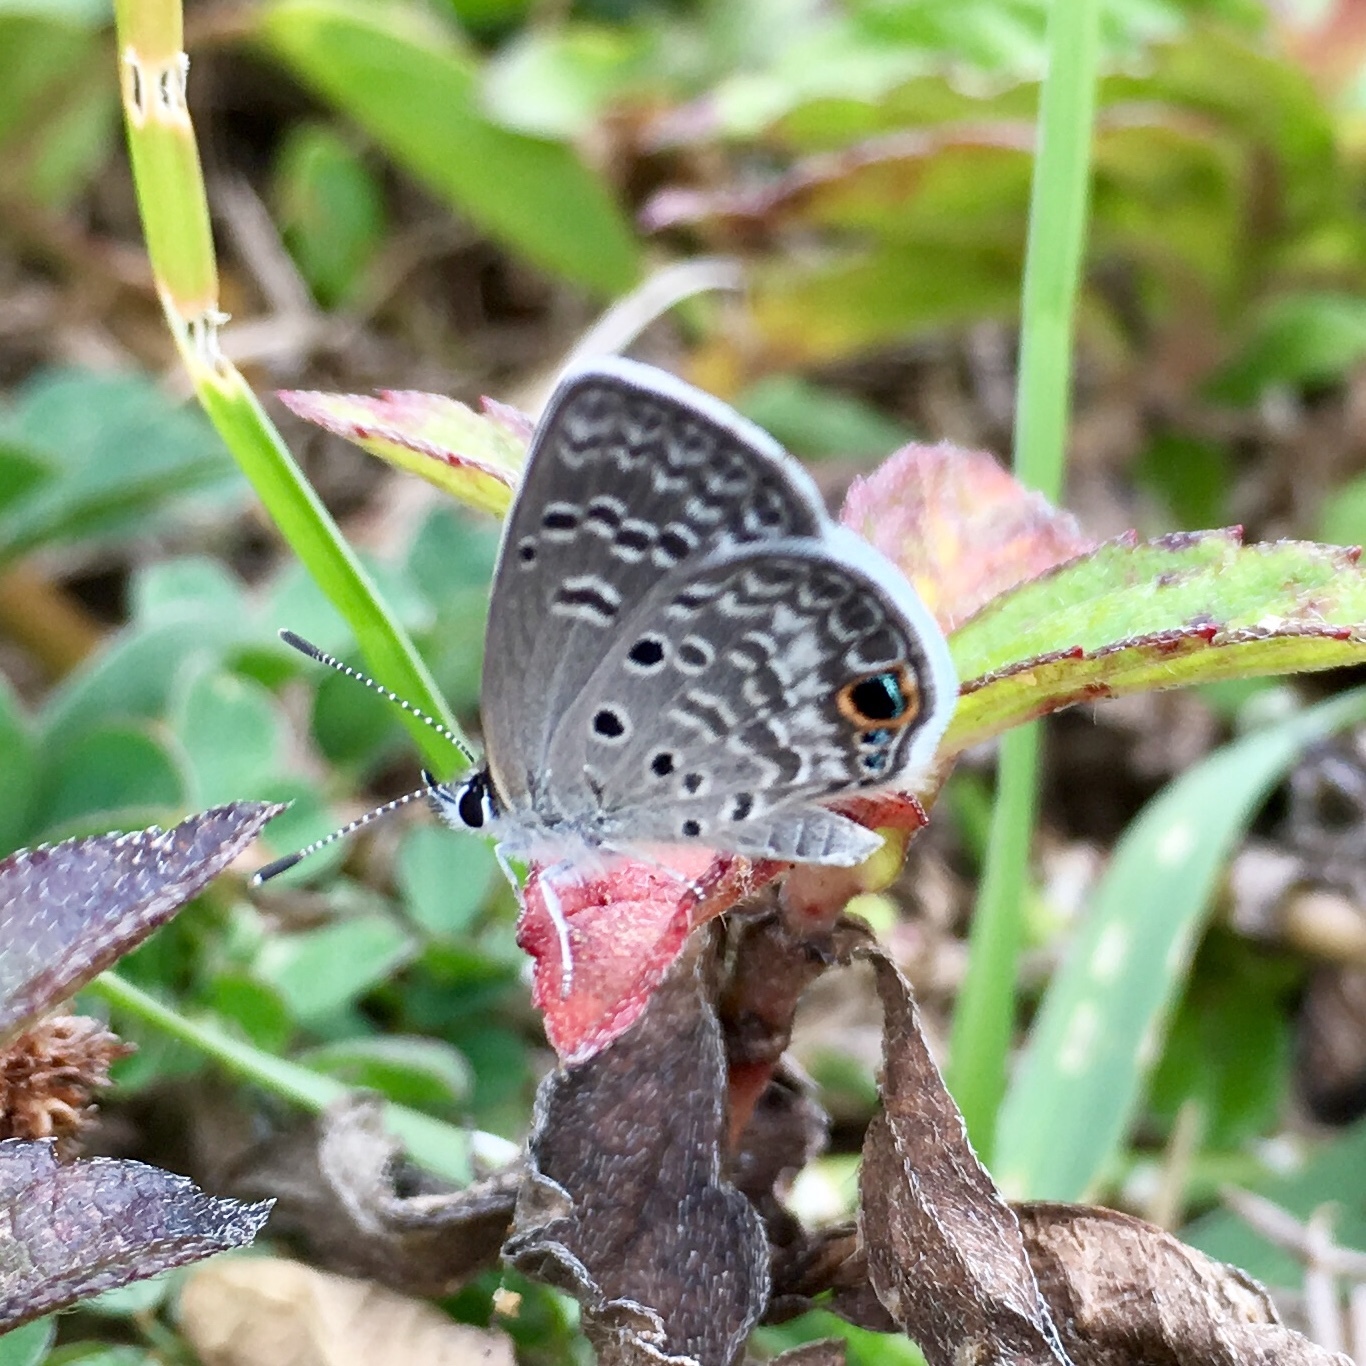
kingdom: Animalia
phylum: Arthropoda
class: Insecta
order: Lepidoptera
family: Lycaenidae
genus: Hemiargus
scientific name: Hemiargus ceraunus
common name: Ceraunus blue
